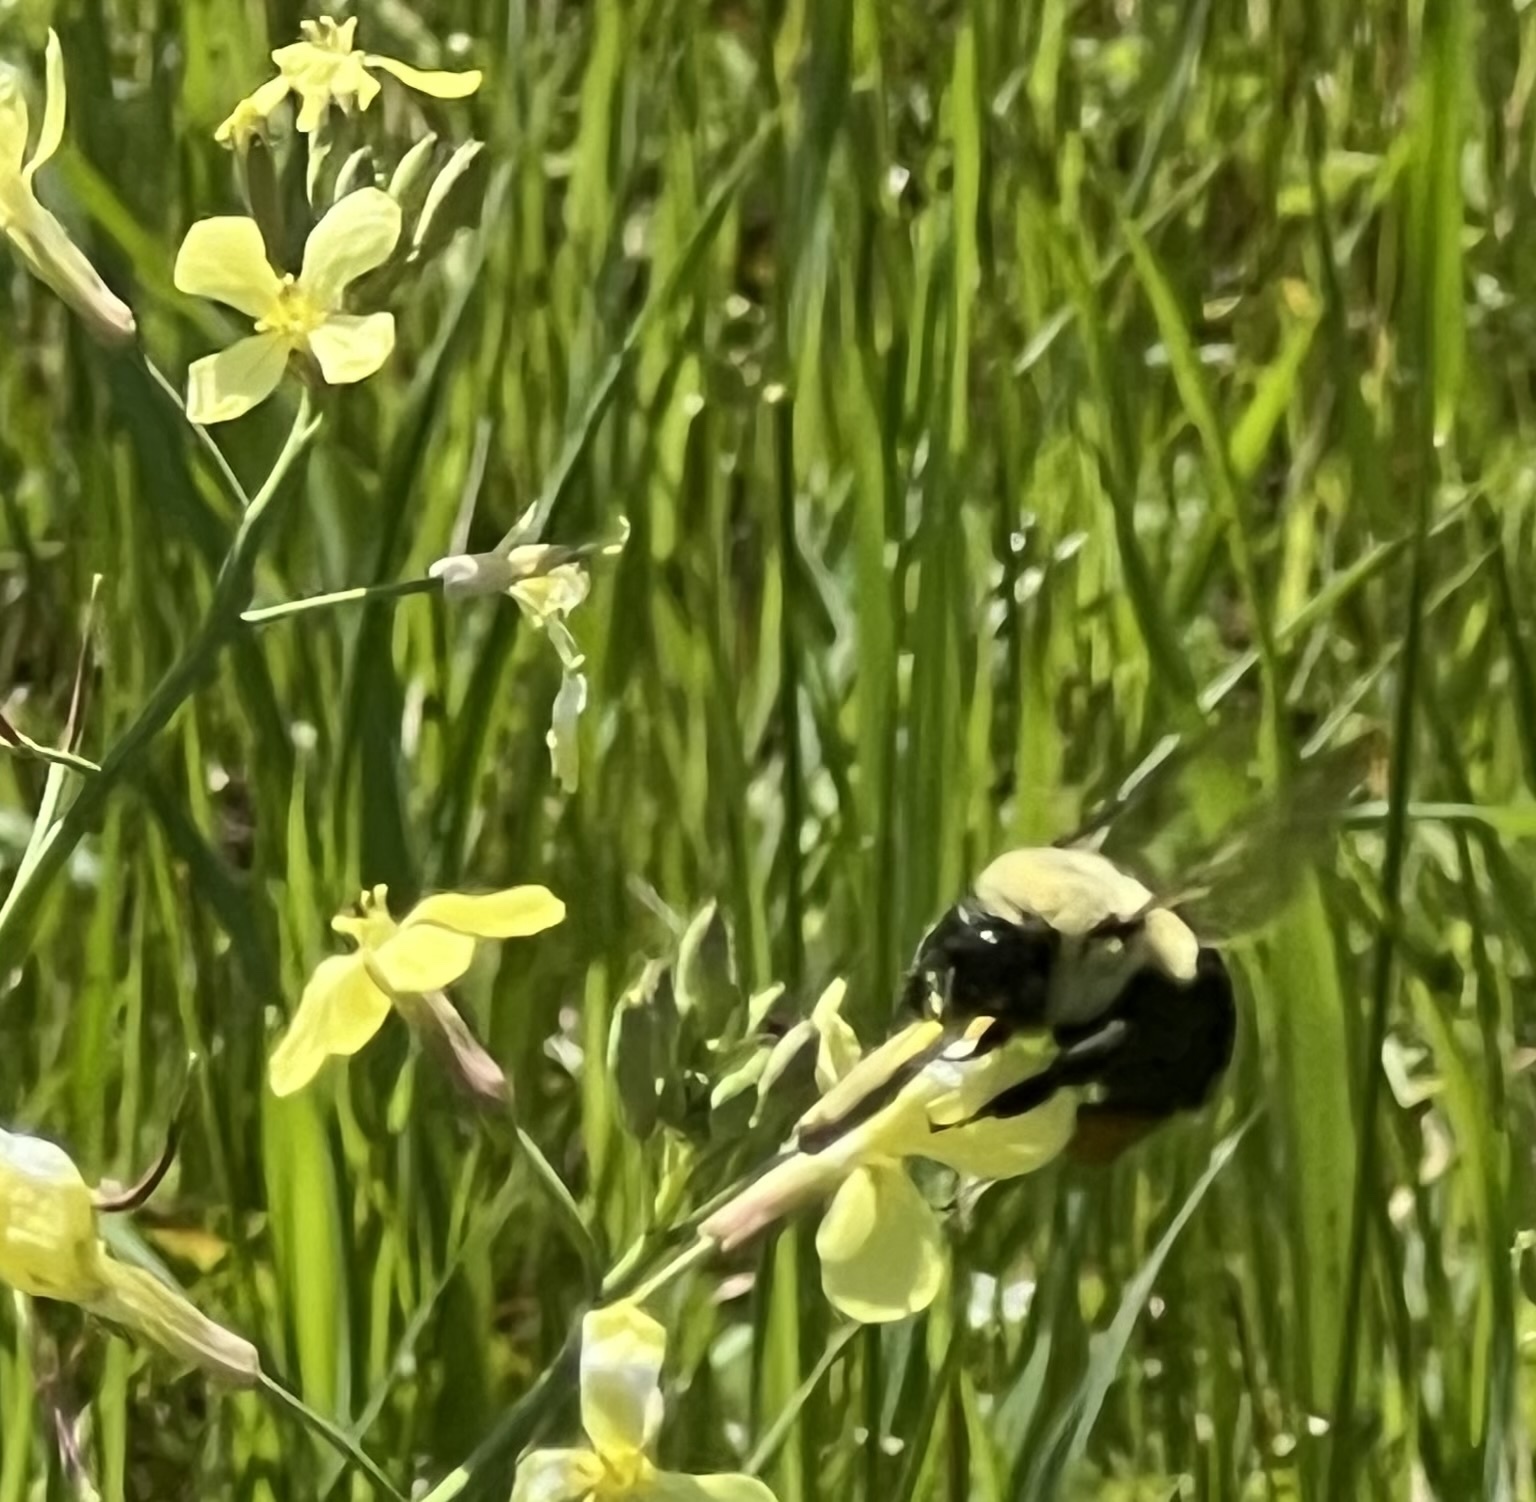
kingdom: Animalia
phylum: Arthropoda
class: Insecta
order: Hymenoptera
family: Apidae
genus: Bombus
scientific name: Bombus impatiens
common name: Common eastern bumble bee
